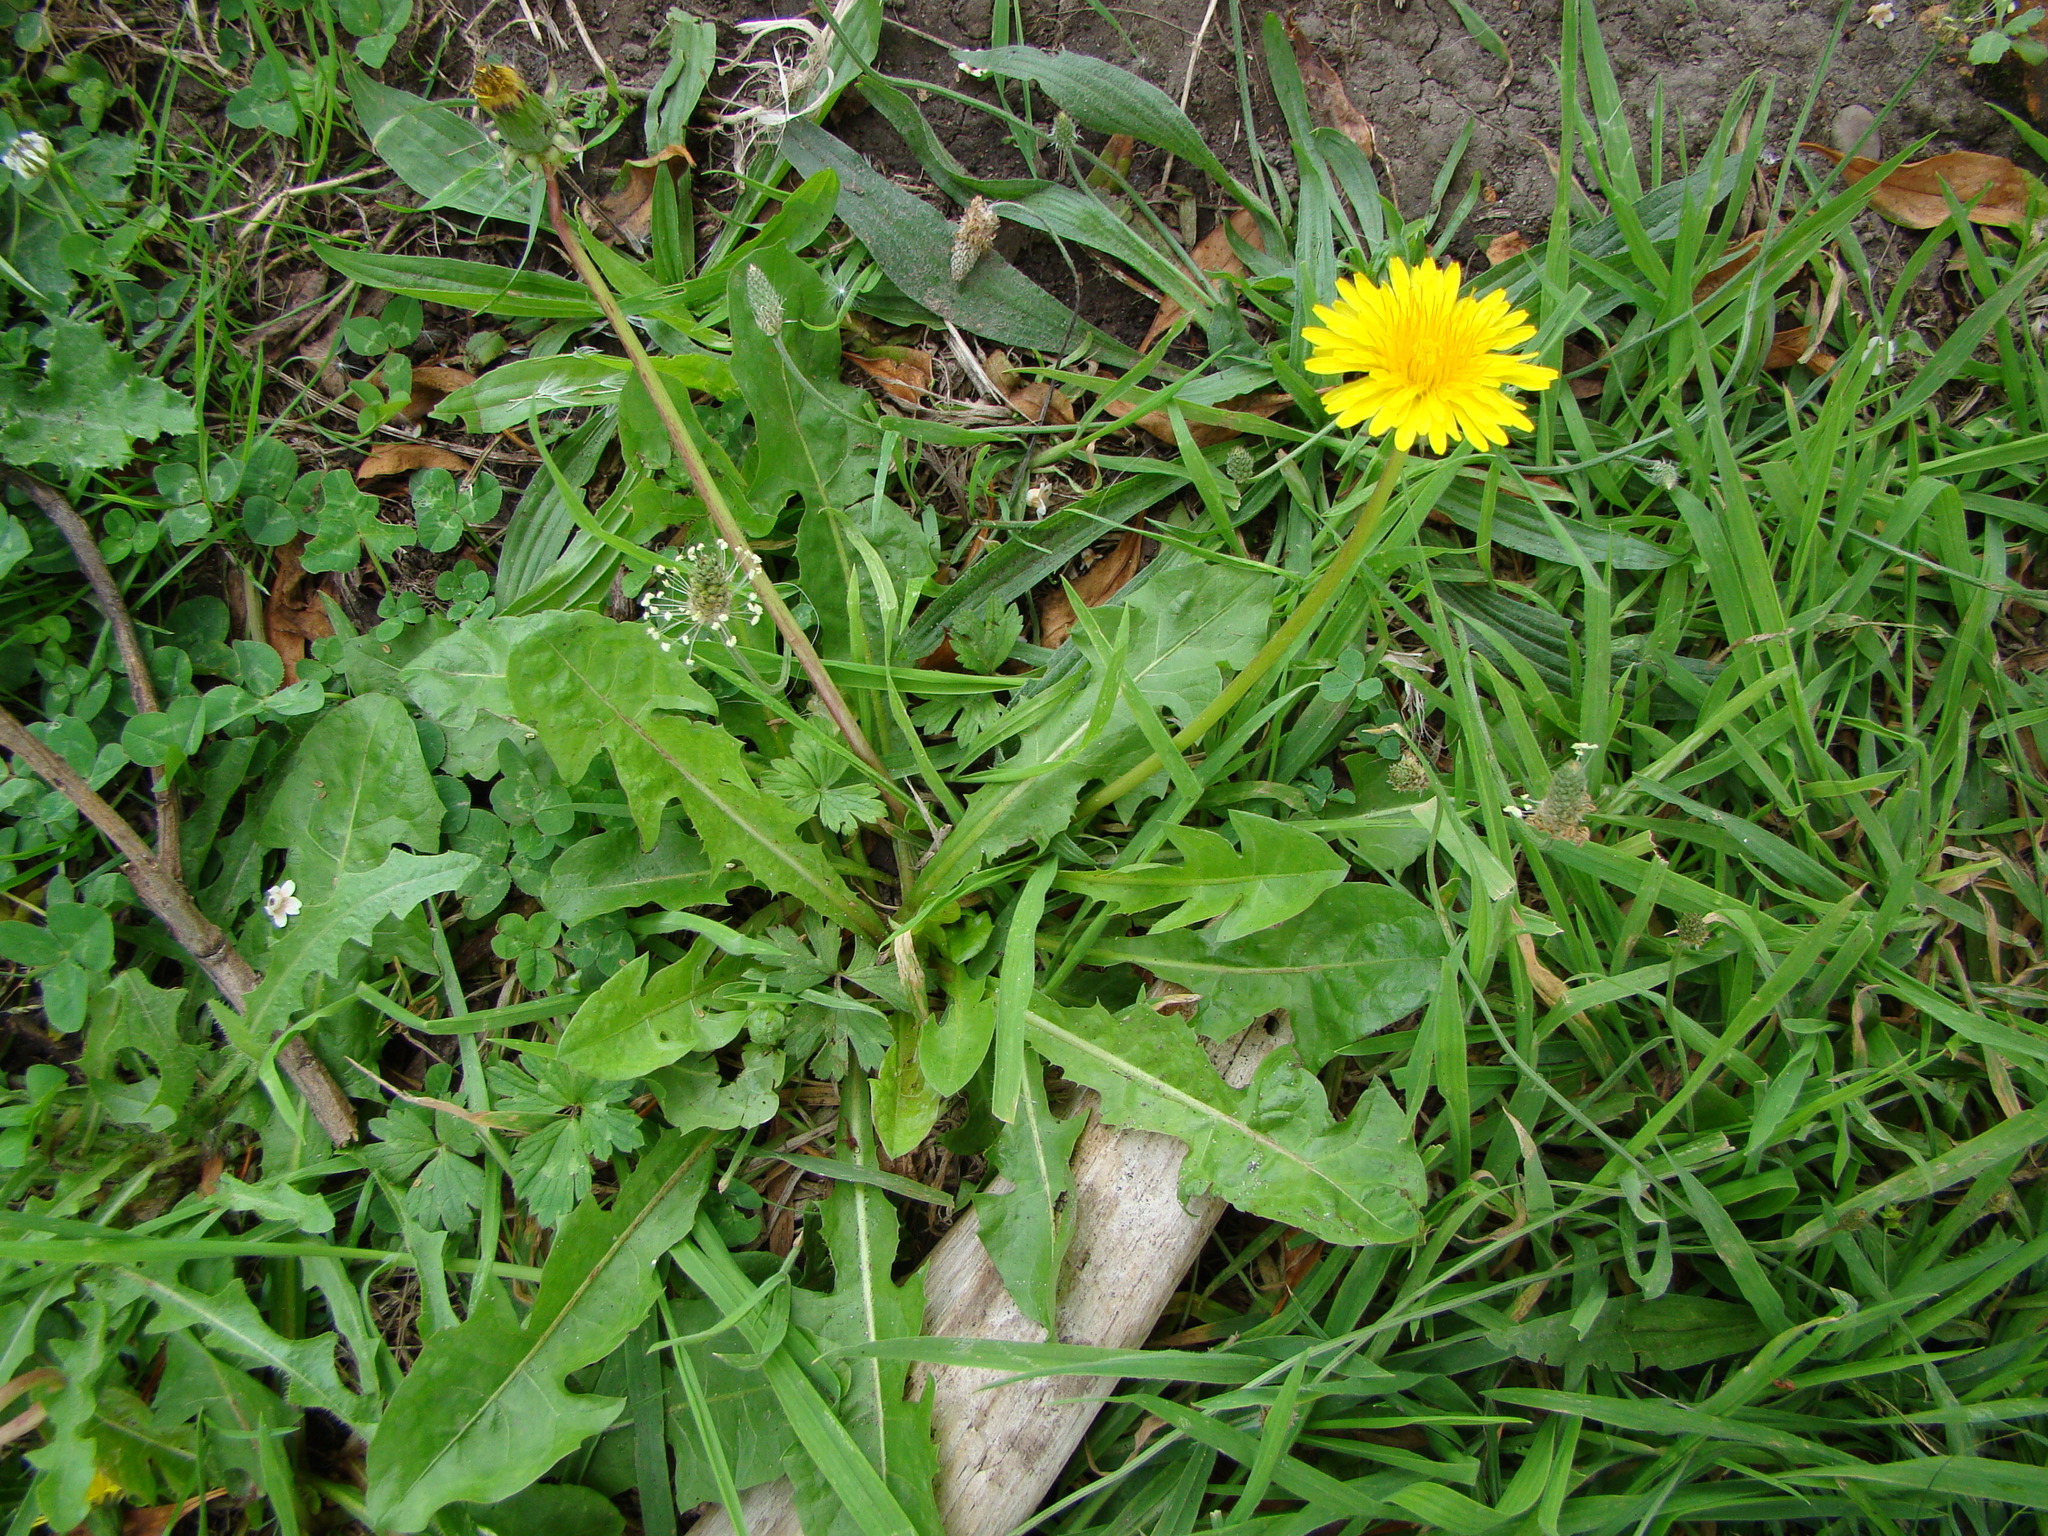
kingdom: Plantae
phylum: Tracheophyta
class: Magnoliopsida
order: Asterales
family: Asteraceae
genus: Taraxacum
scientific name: Taraxacum officinale
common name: Common dandelion
